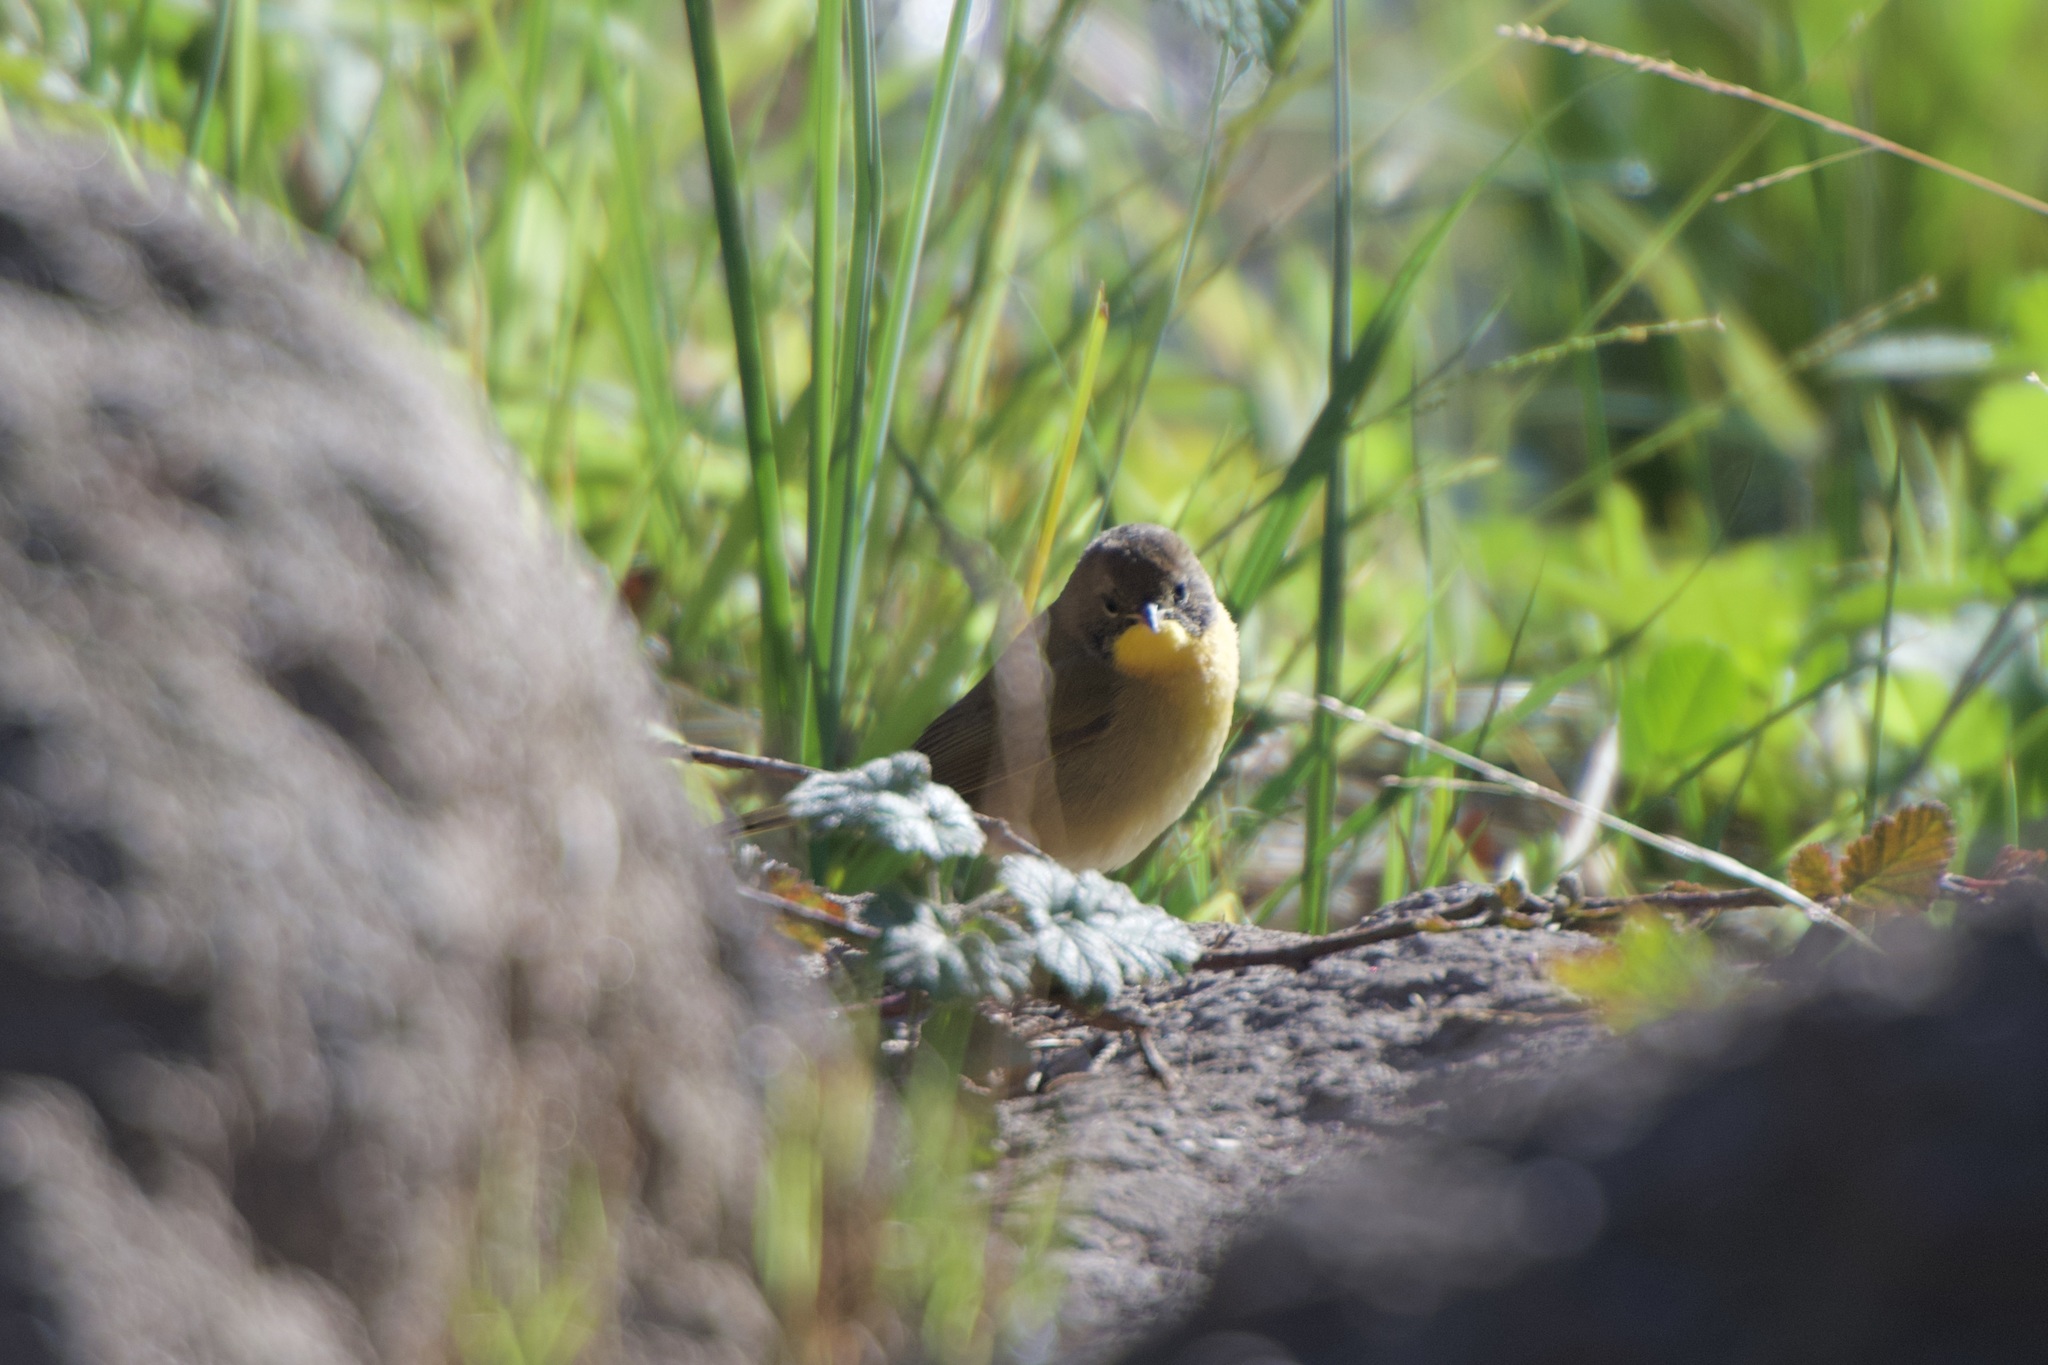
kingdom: Animalia
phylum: Chordata
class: Aves
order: Passeriformes
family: Parulidae
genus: Geothlypis
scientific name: Geothlypis trichas
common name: Common yellowthroat
